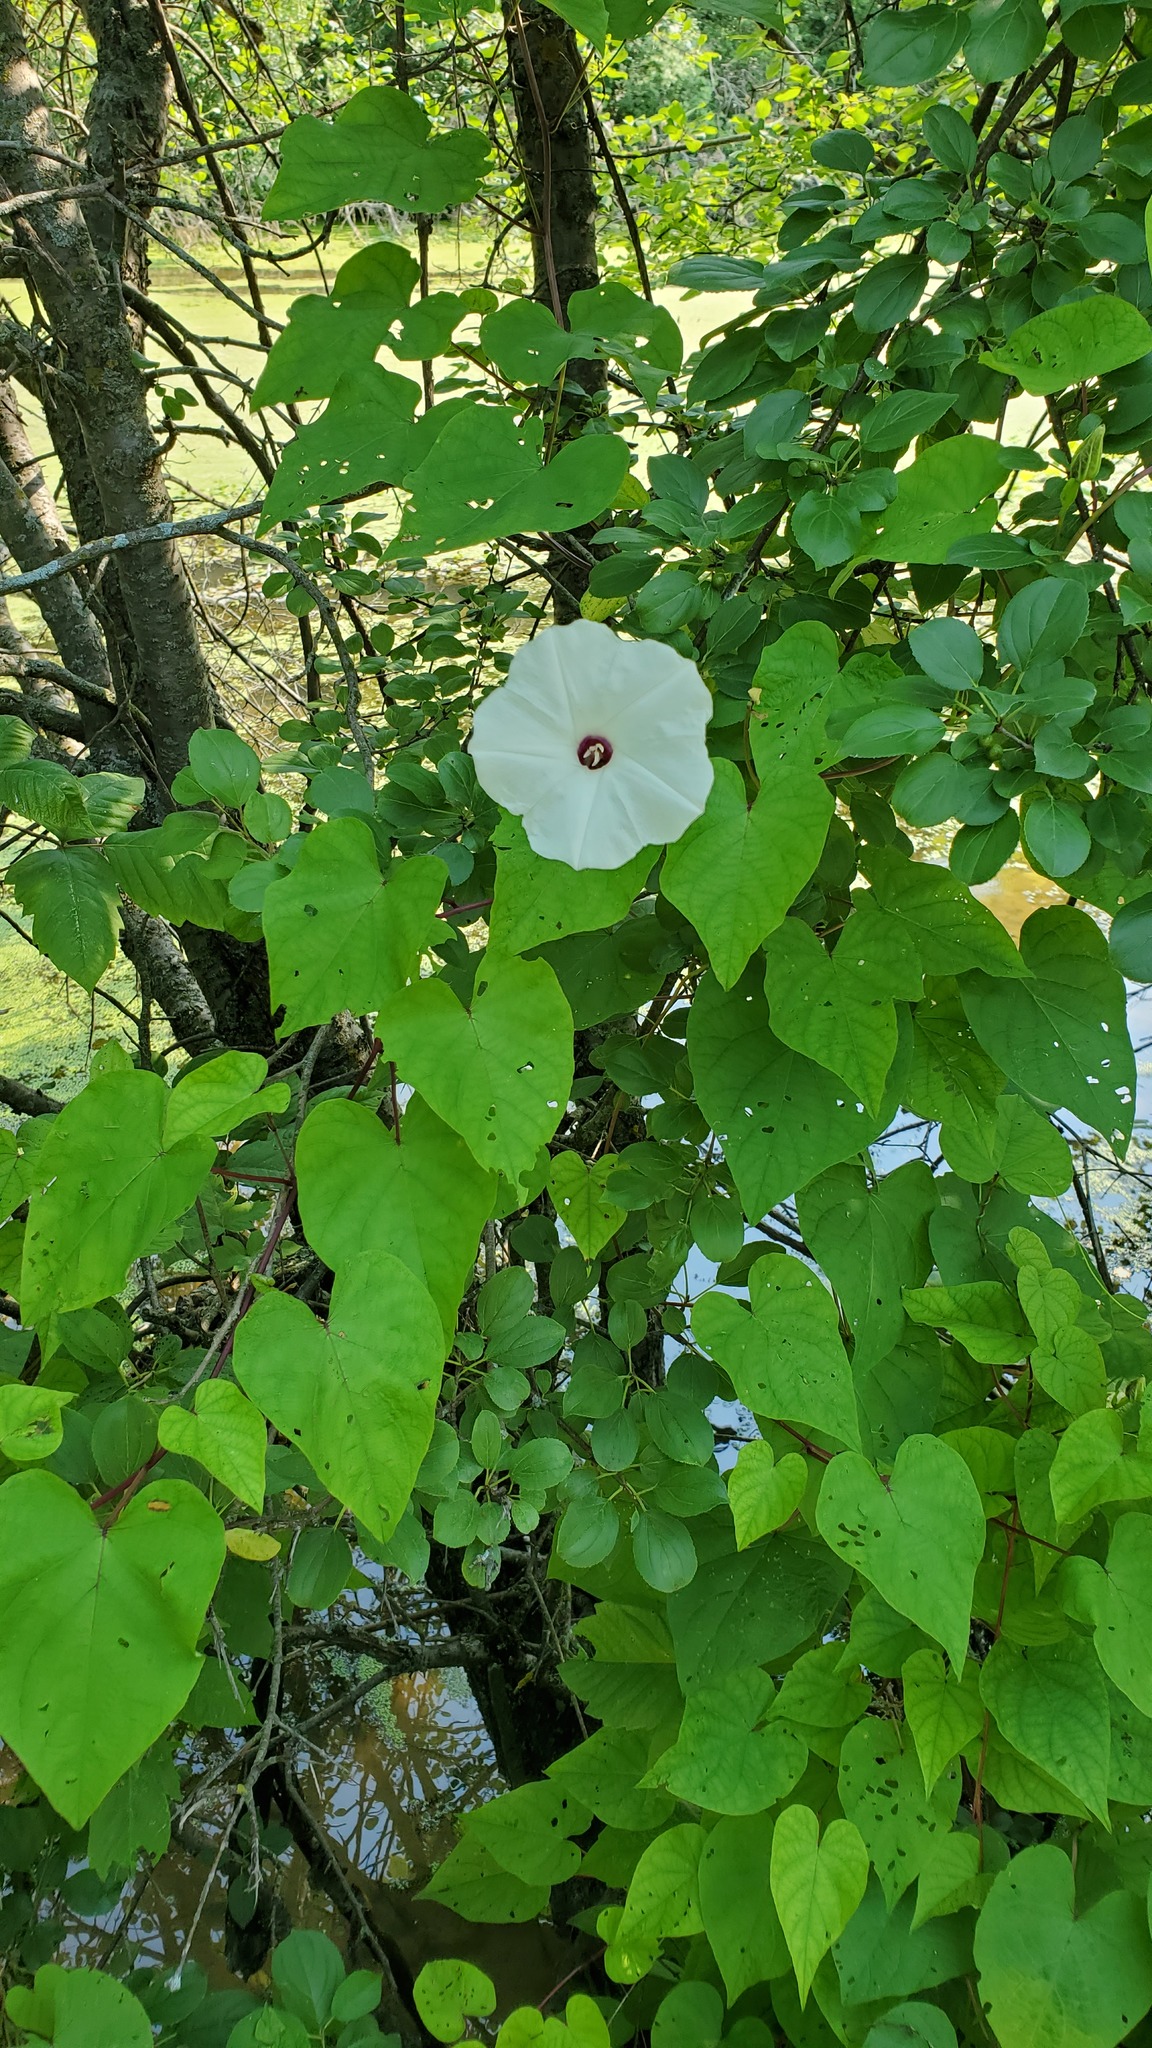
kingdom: Plantae
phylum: Tracheophyta
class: Magnoliopsida
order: Solanales
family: Convolvulaceae
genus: Ipomoea
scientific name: Ipomoea pandurata
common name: Man-of-the-earth
